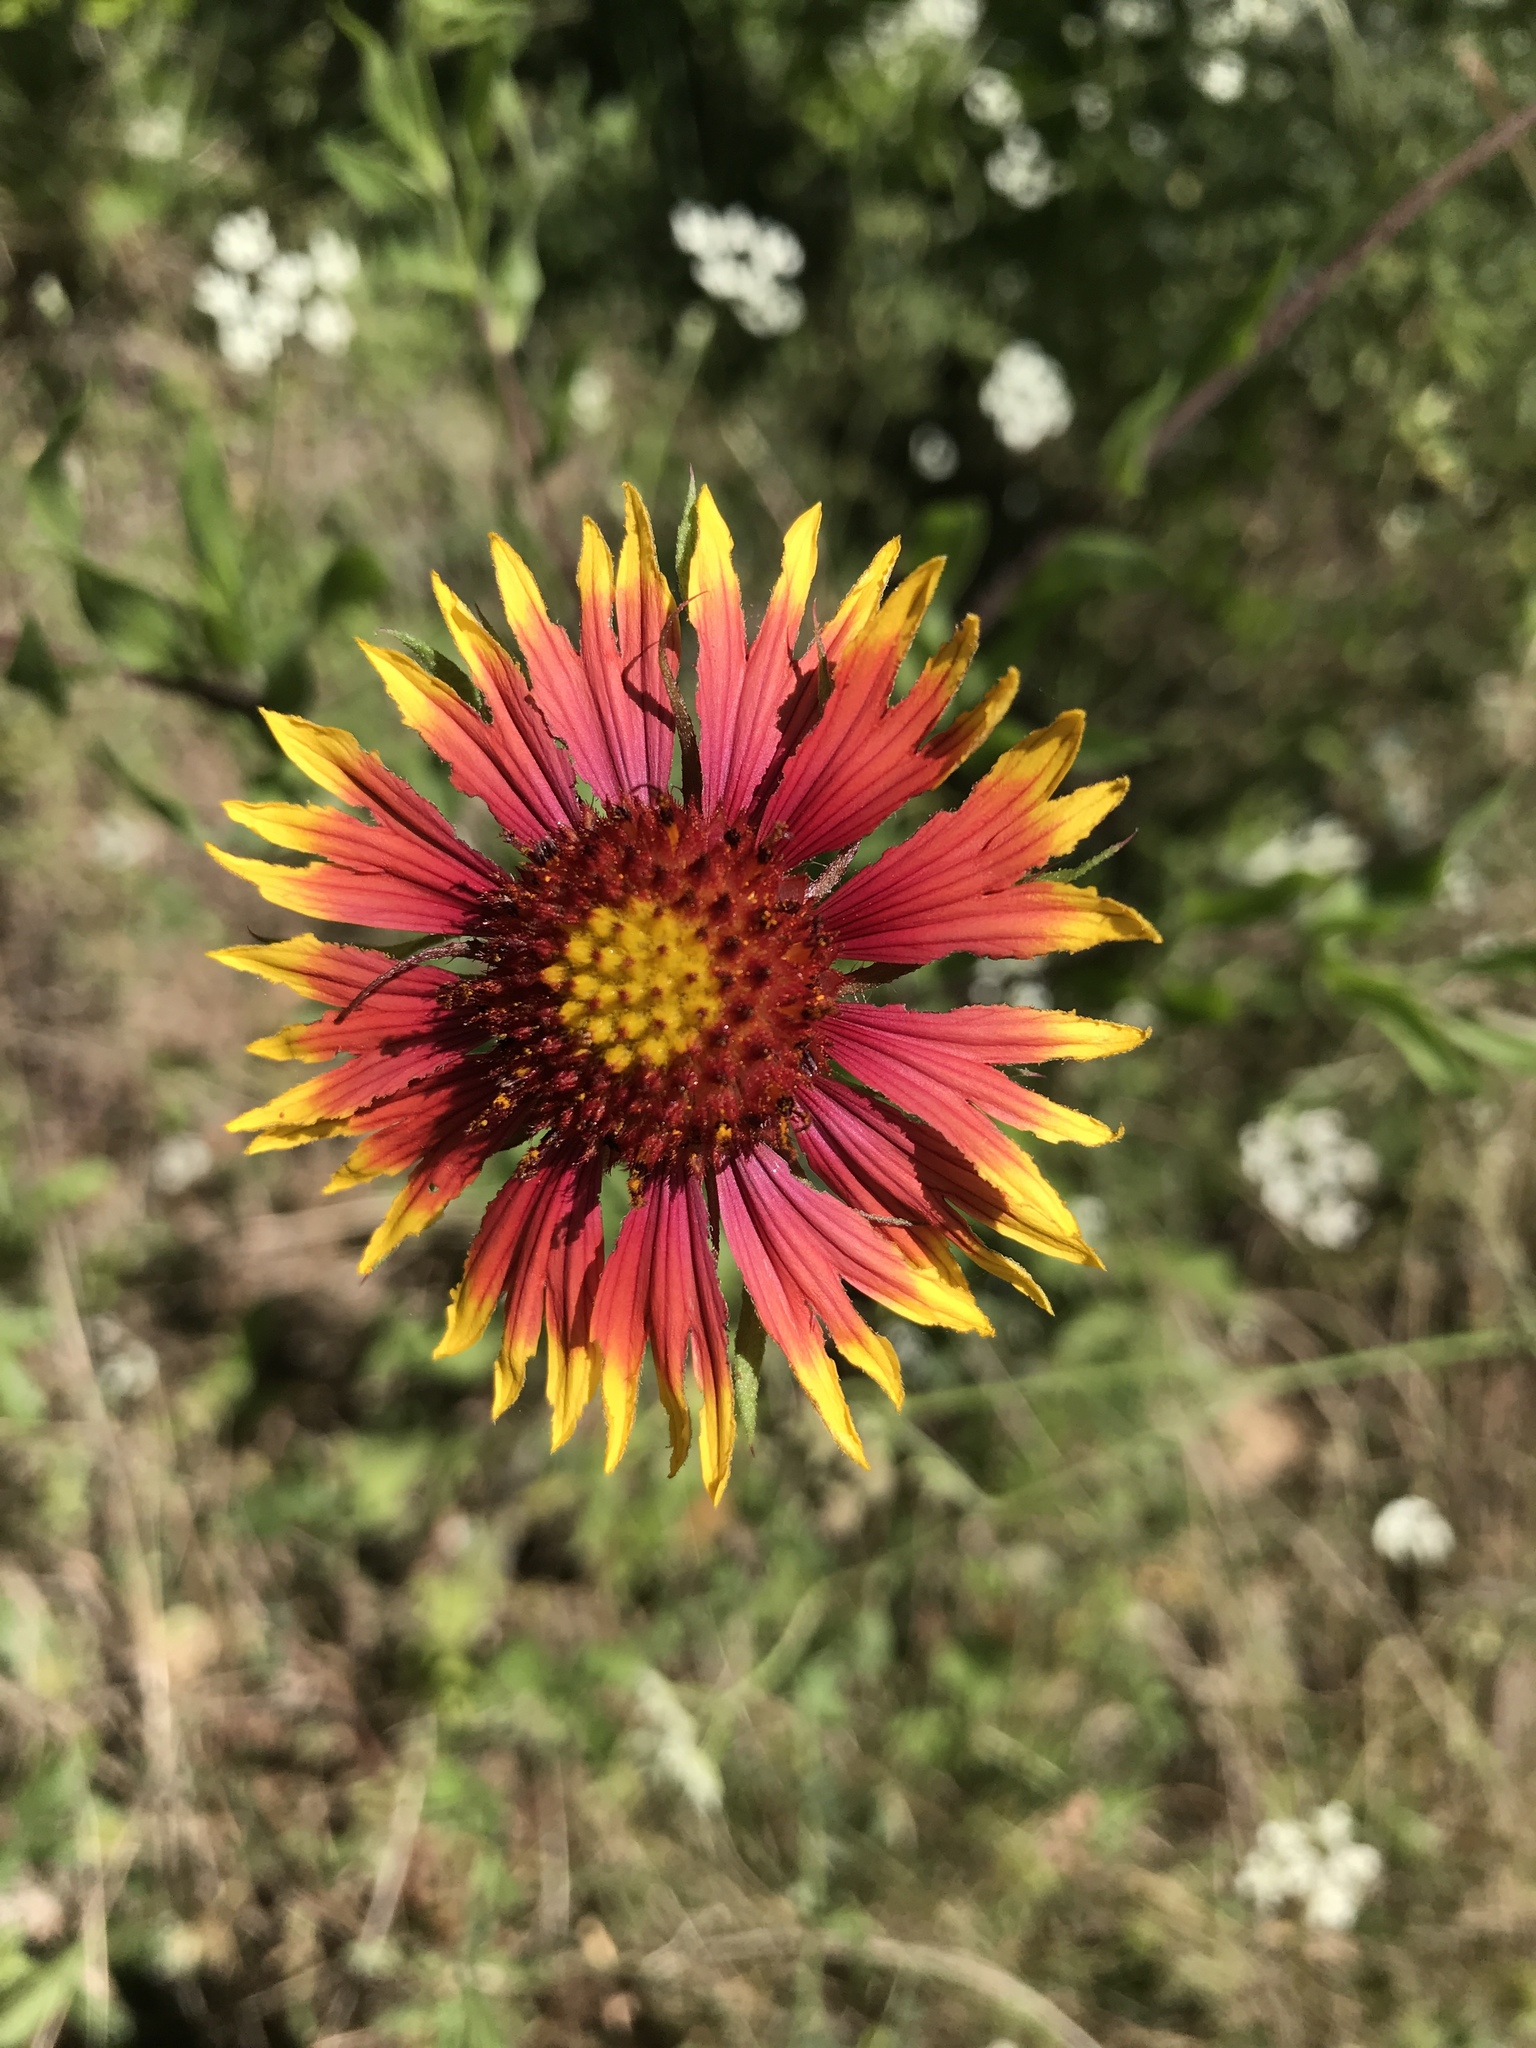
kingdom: Plantae
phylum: Tracheophyta
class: Magnoliopsida
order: Asterales
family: Asteraceae
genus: Gaillardia
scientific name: Gaillardia pulchella
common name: Firewheel
